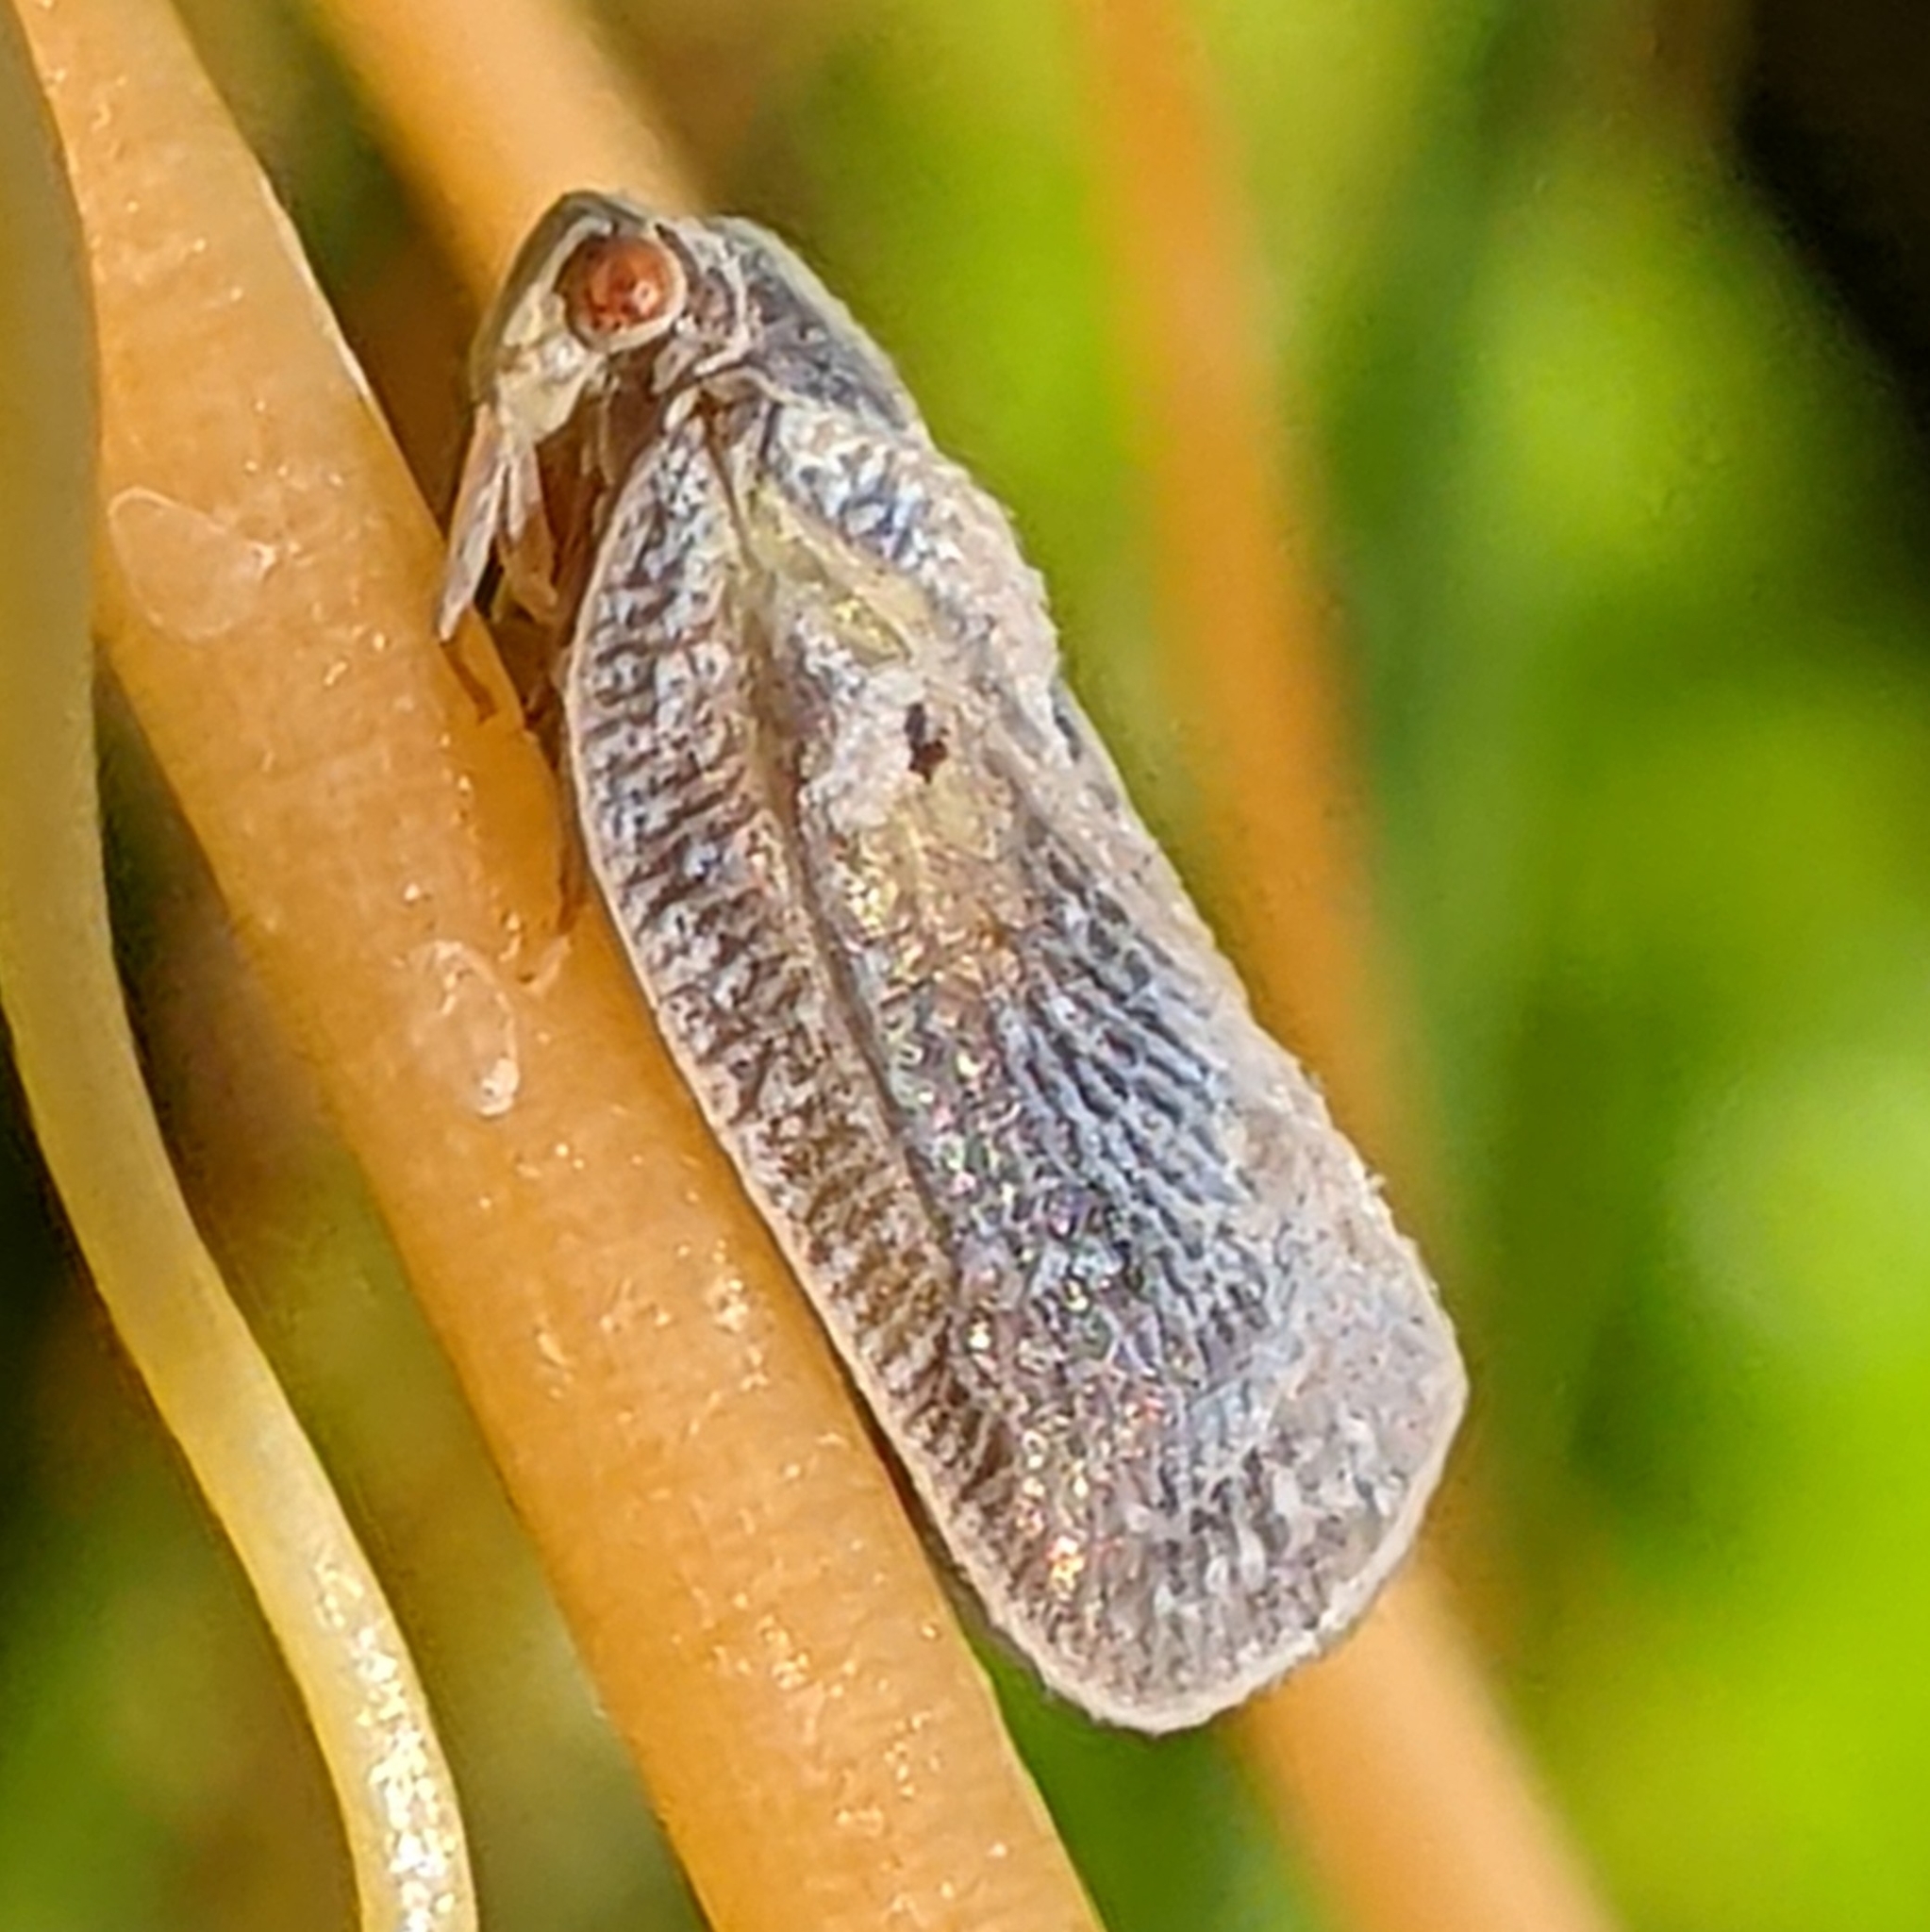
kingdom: Animalia
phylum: Arthropoda
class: Insecta
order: Hemiptera
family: Flatidae
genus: Melormenis
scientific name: Melormenis basalis
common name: Puerto rican planthopper
